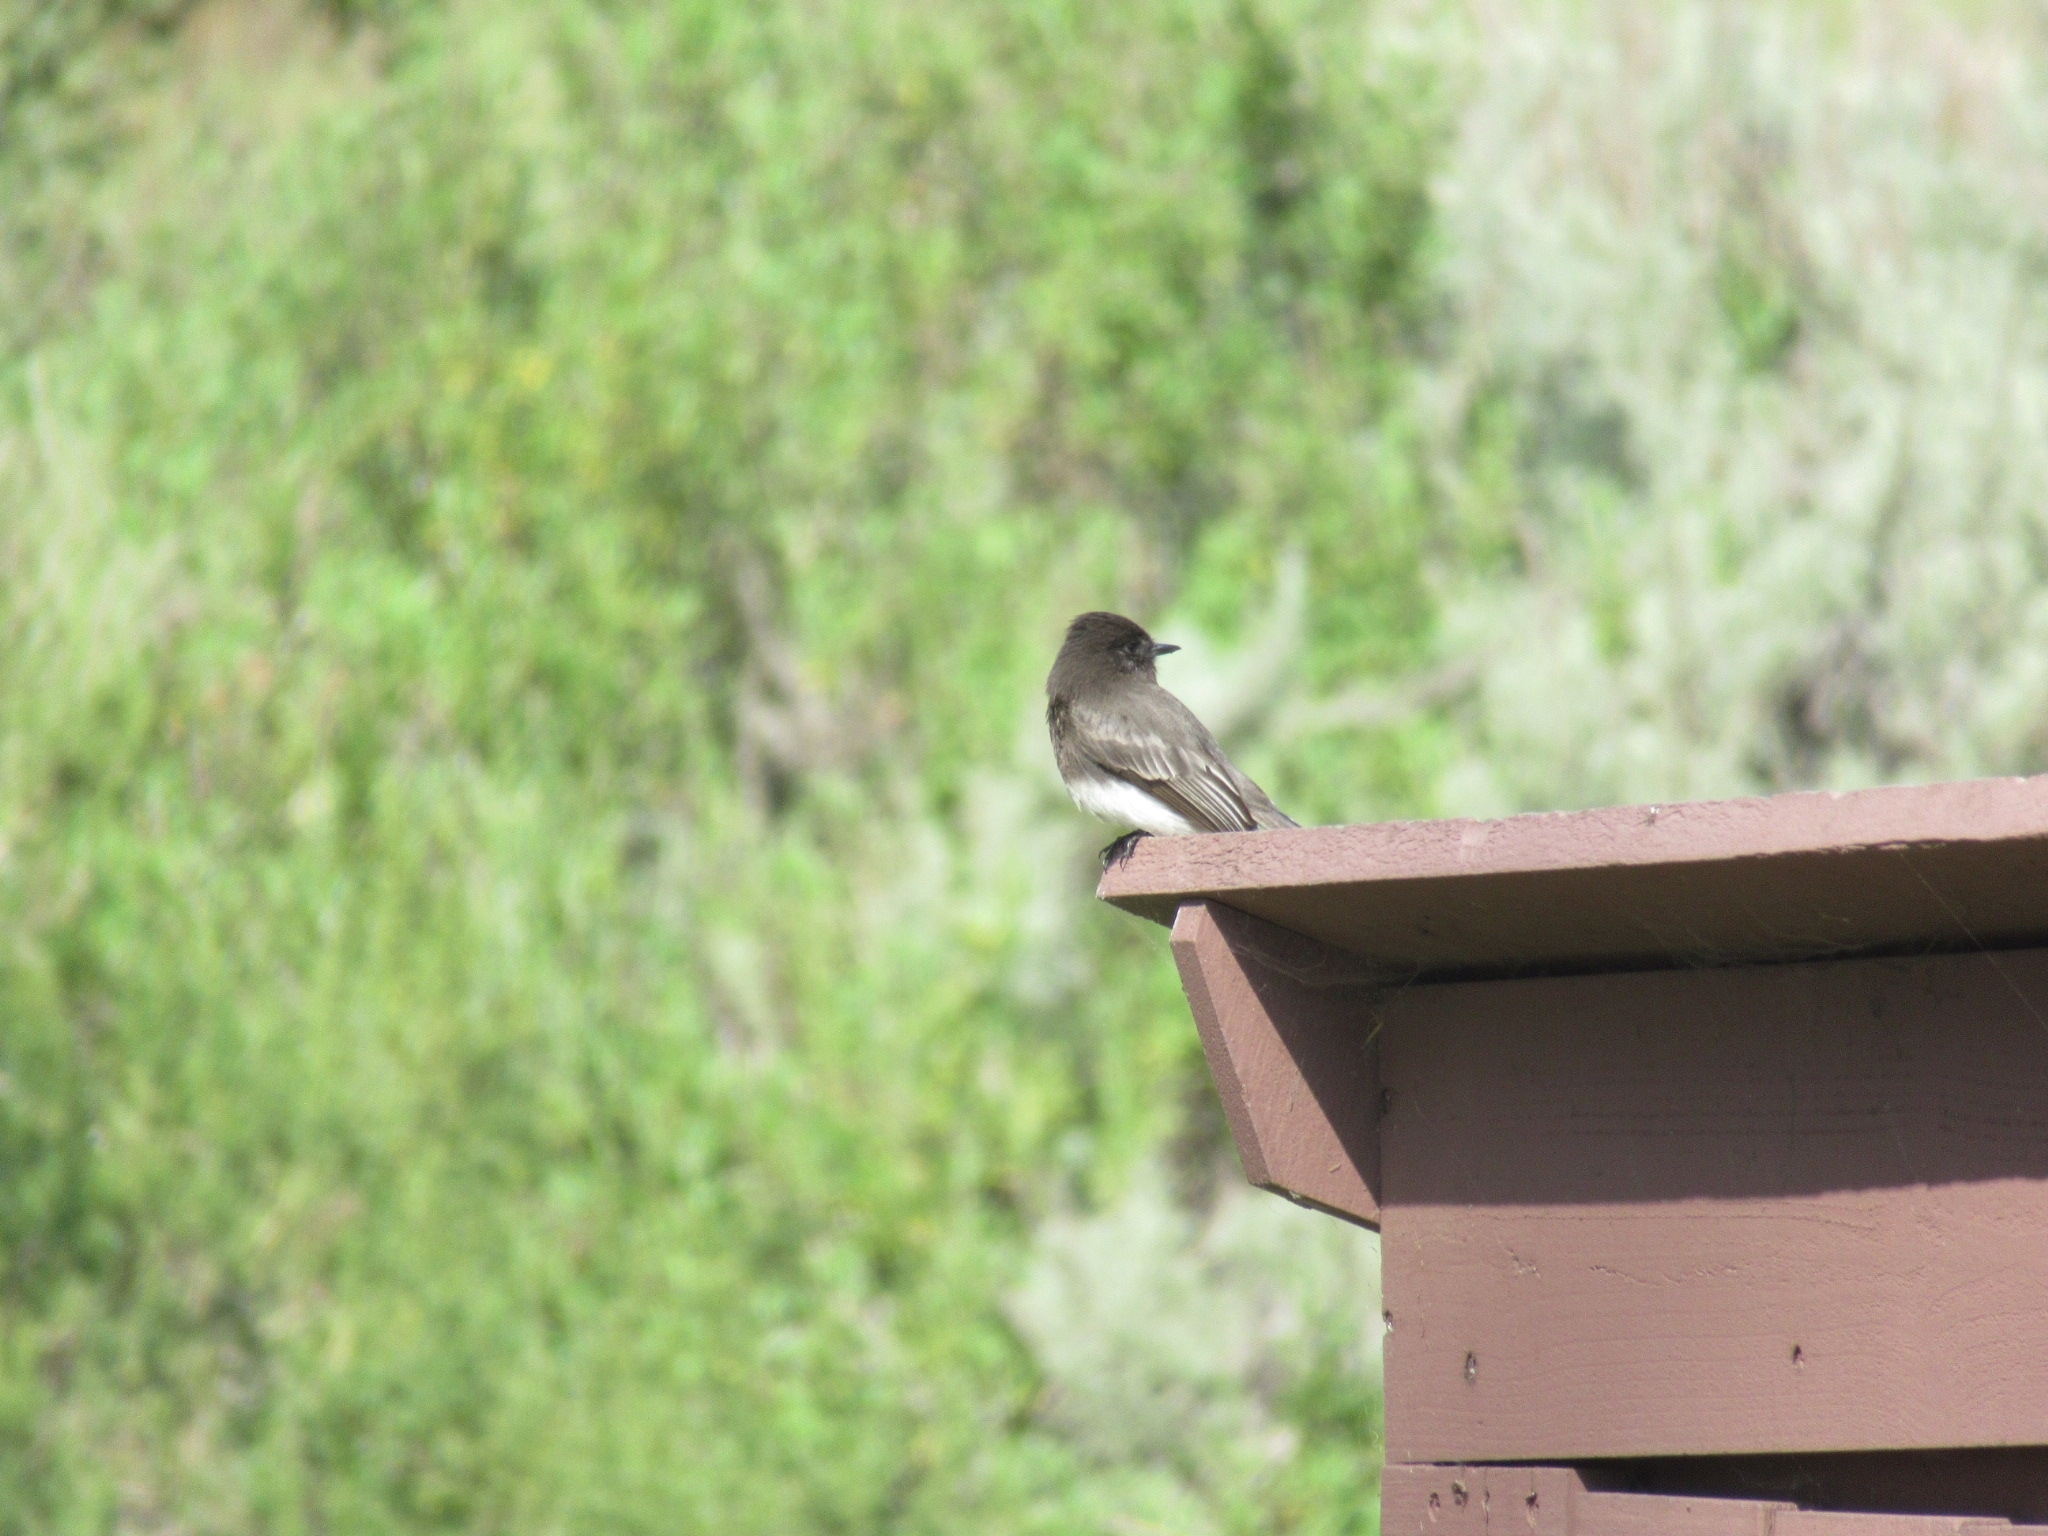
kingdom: Animalia
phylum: Chordata
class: Aves
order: Passeriformes
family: Tyrannidae
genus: Sayornis
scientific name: Sayornis nigricans
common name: Black phoebe
